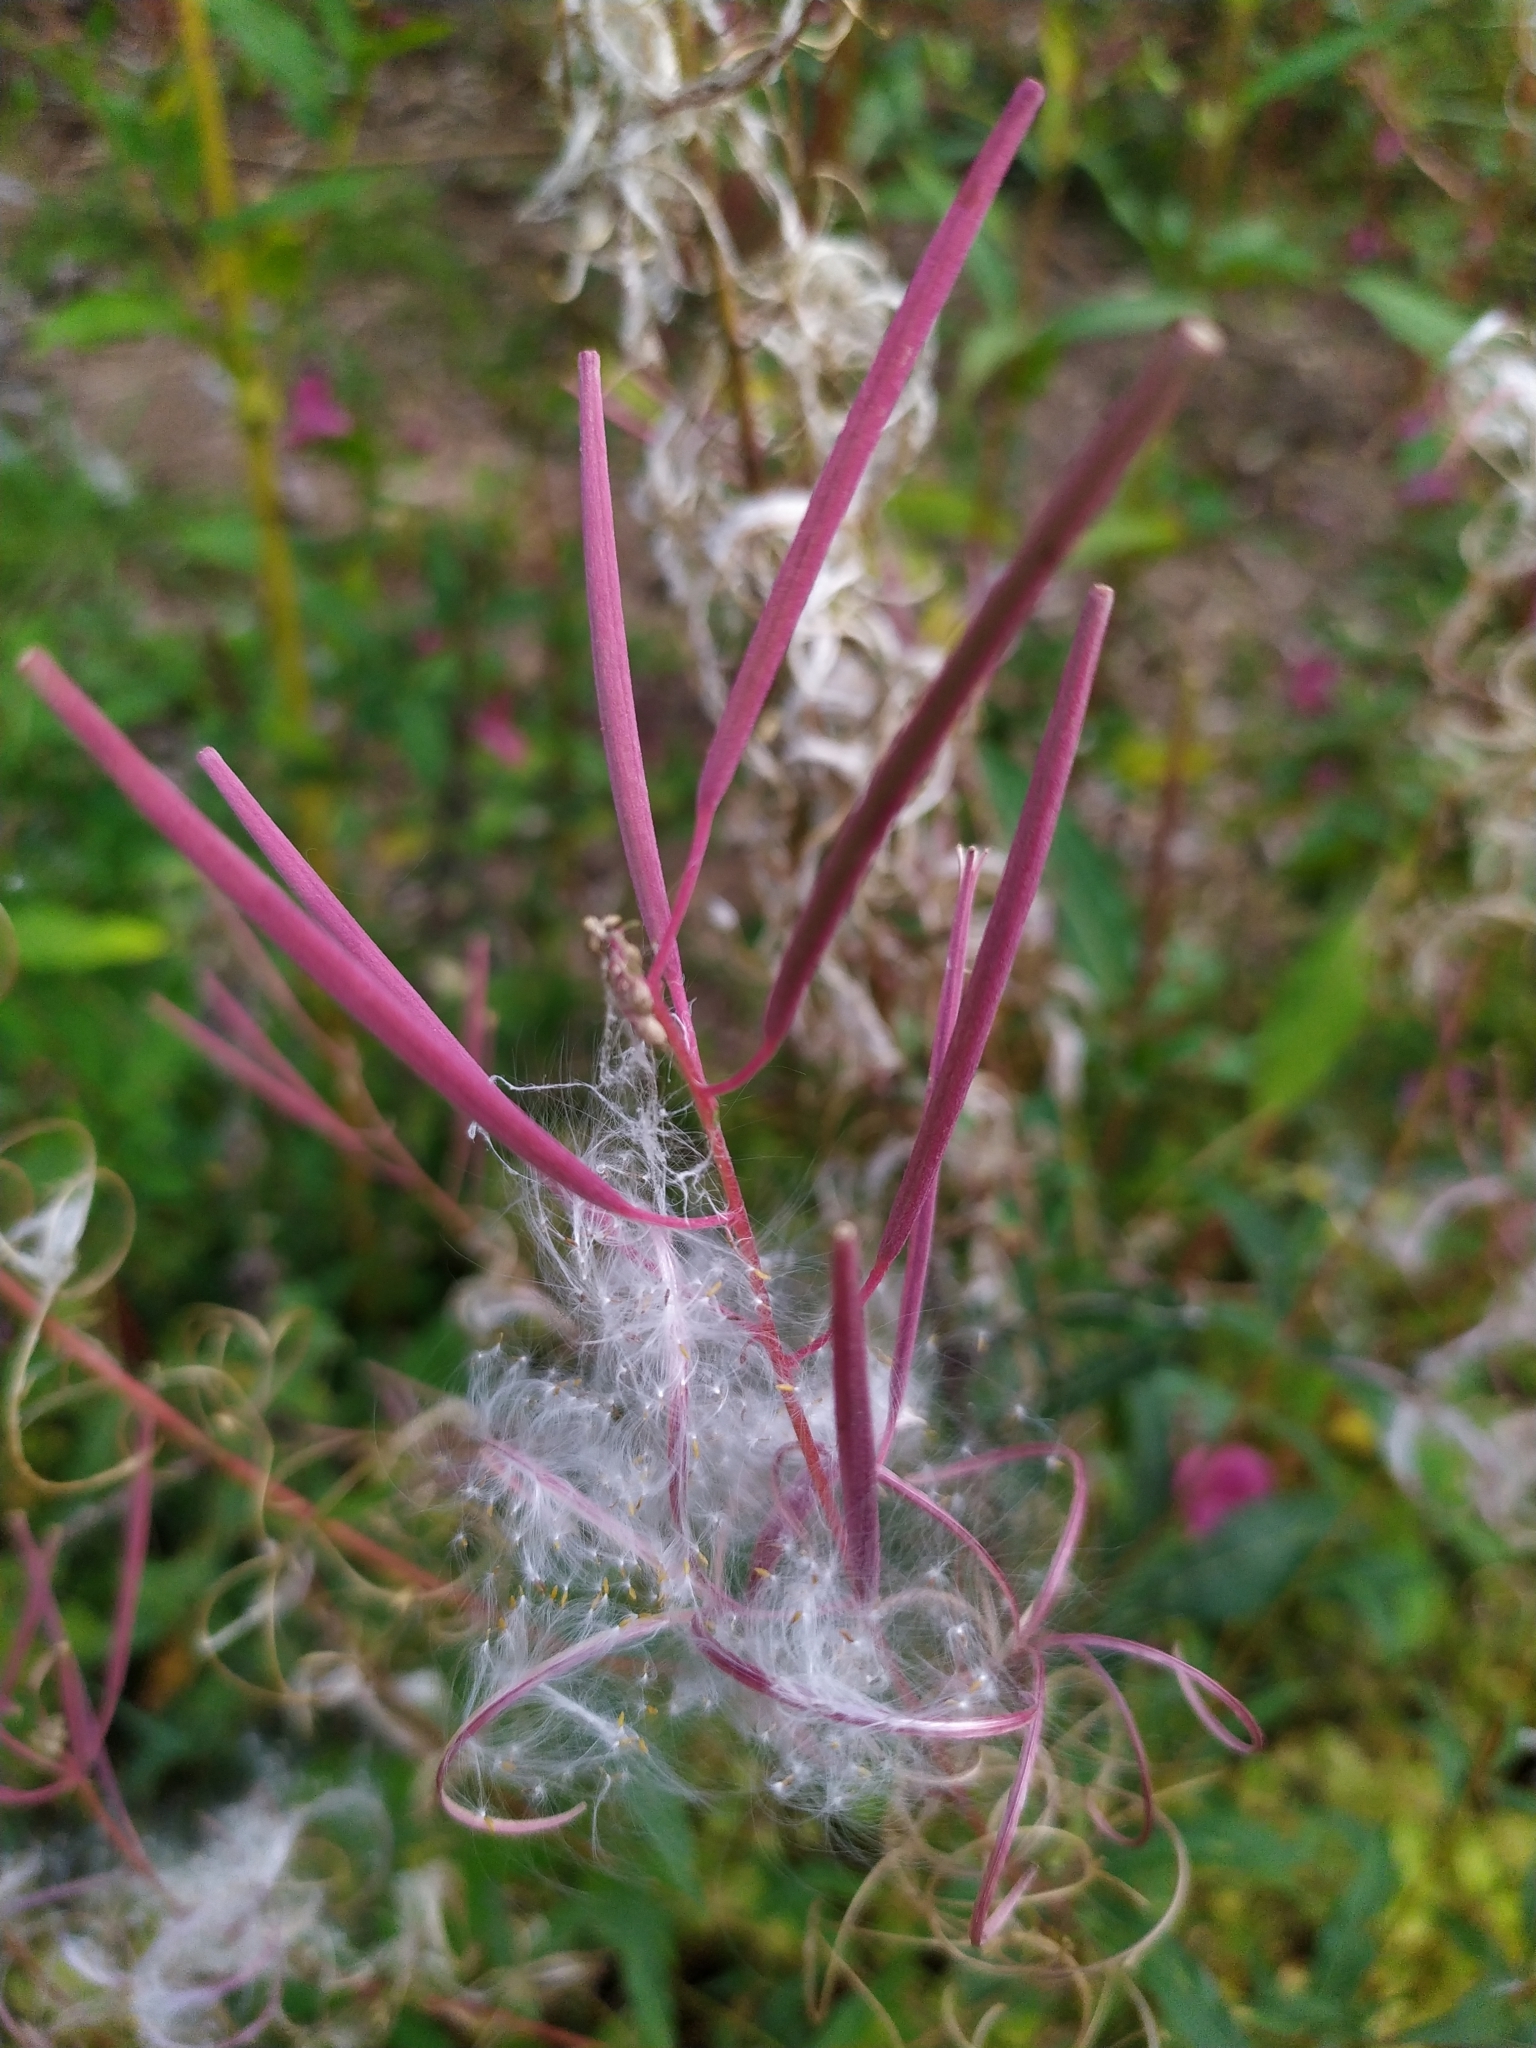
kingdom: Plantae
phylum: Tracheophyta
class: Magnoliopsida
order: Myrtales
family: Onagraceae
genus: Chamaenerion
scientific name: Chamaenerion angustifolium
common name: Fireweed
